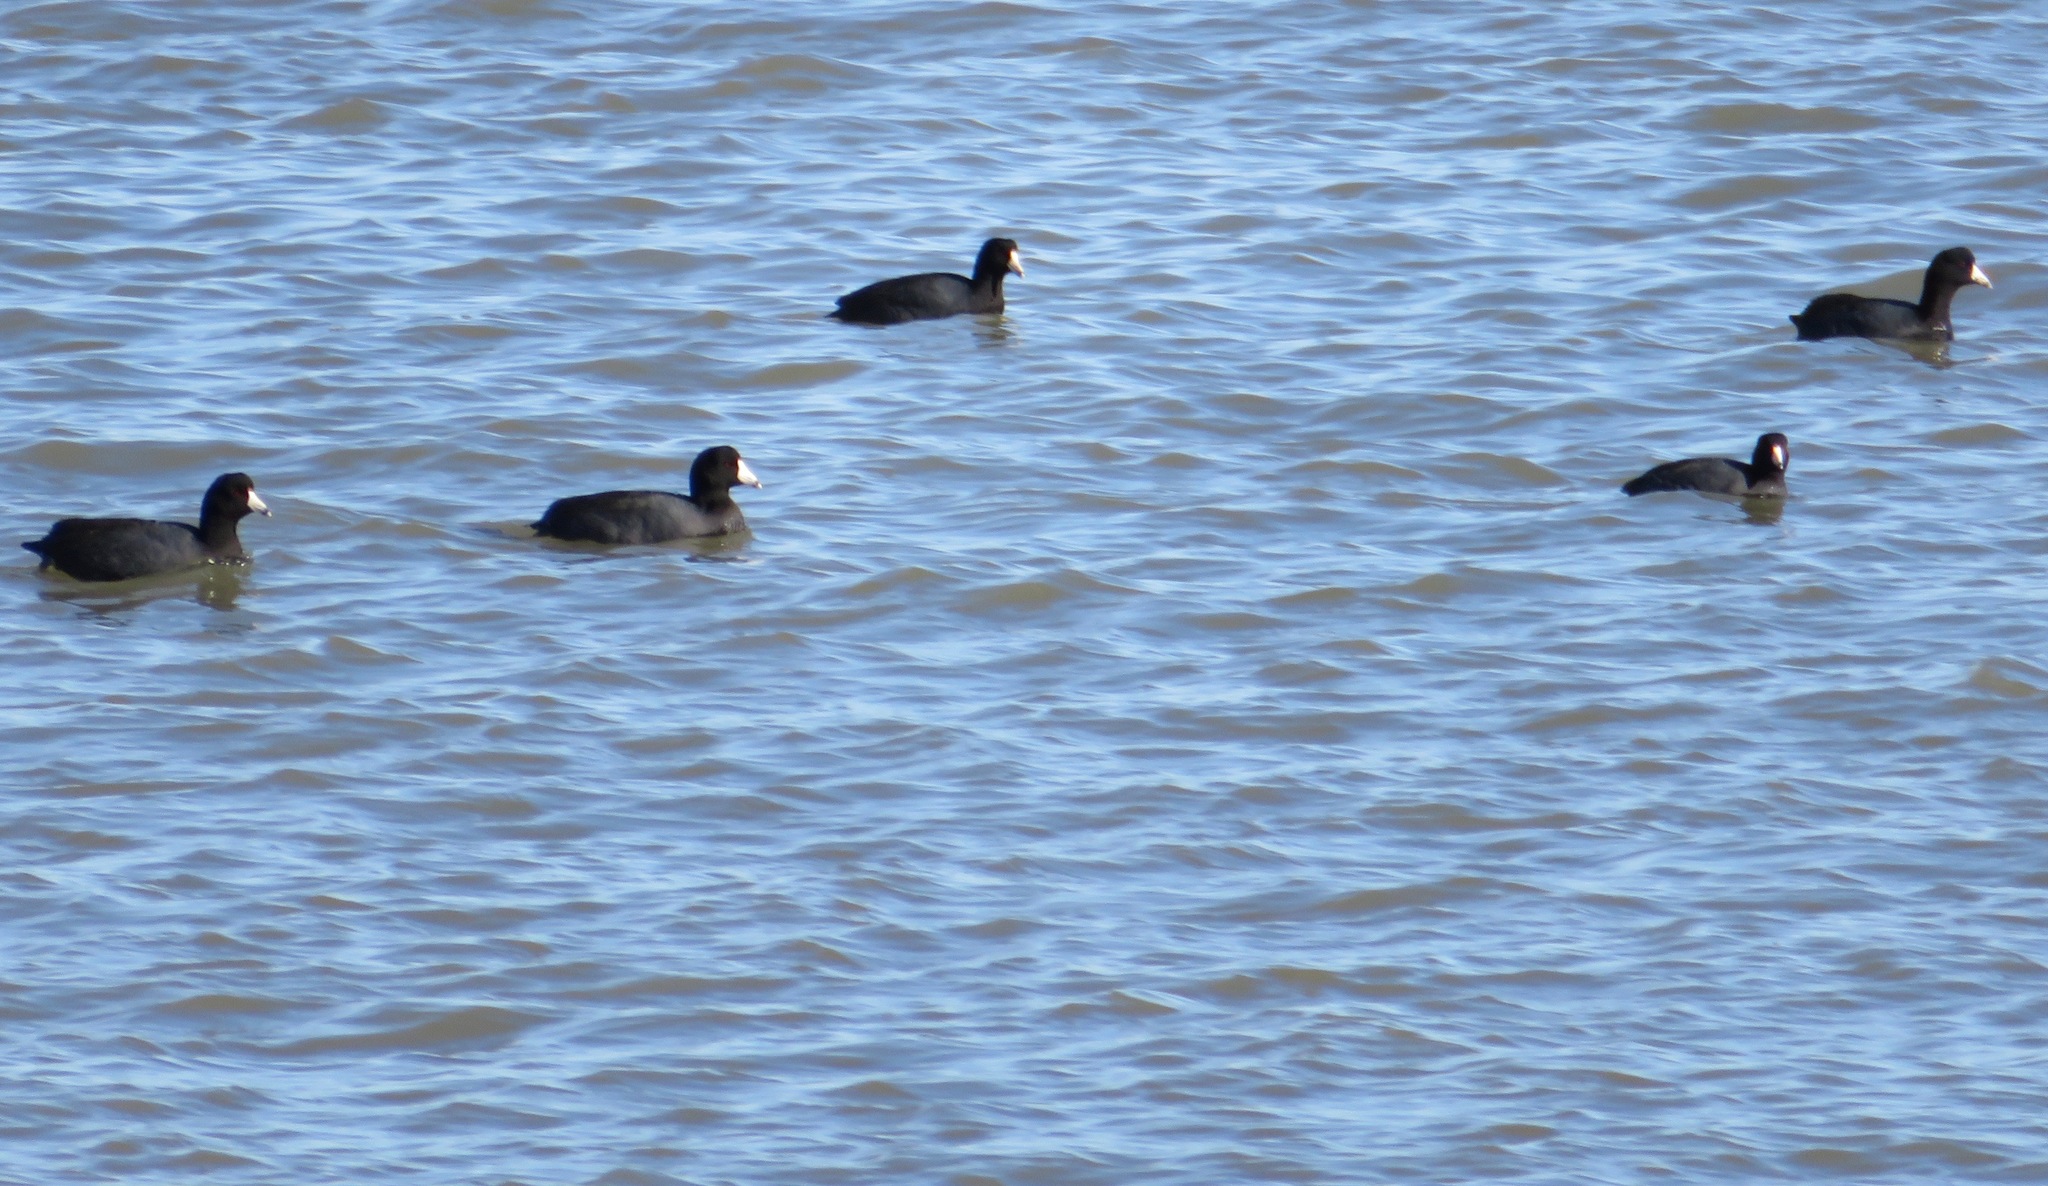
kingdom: Animalia
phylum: Chordata
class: Aves
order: Gruiformes
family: Rallidae
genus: Fulica
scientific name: Fulica americana
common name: American coot
